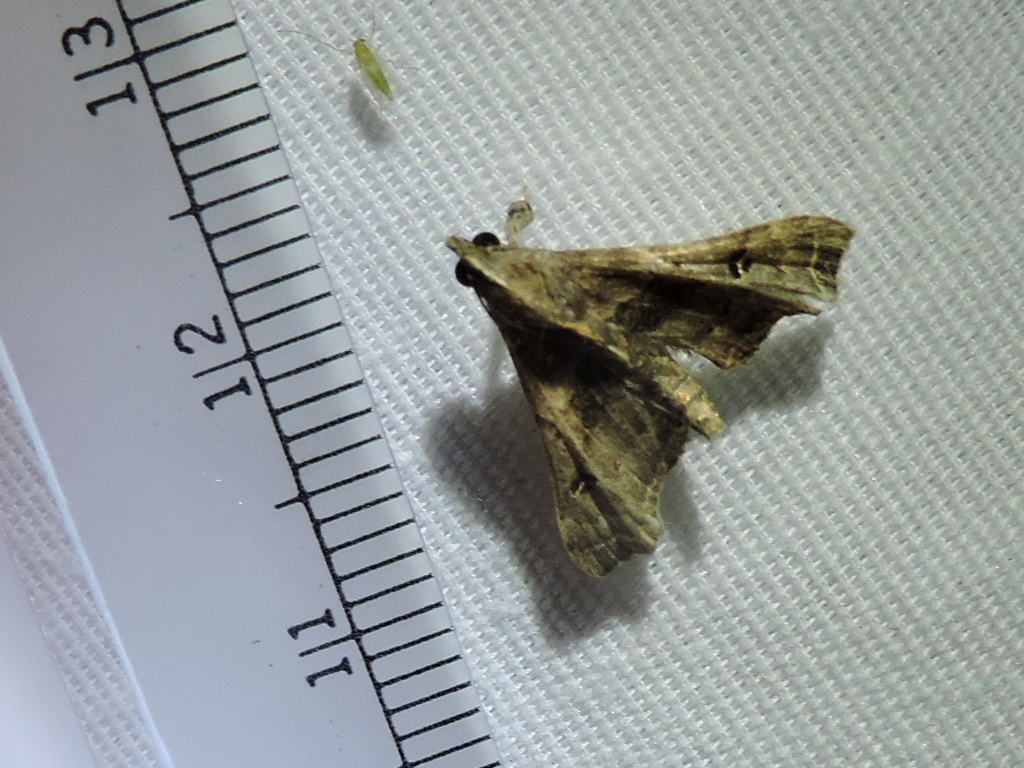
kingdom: Animalia
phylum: Arthropoda
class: Insecta
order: Lepidoptera
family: Erebidae
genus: Palthis
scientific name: Palthis asopialis
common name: Faint-spotted palthis moth
